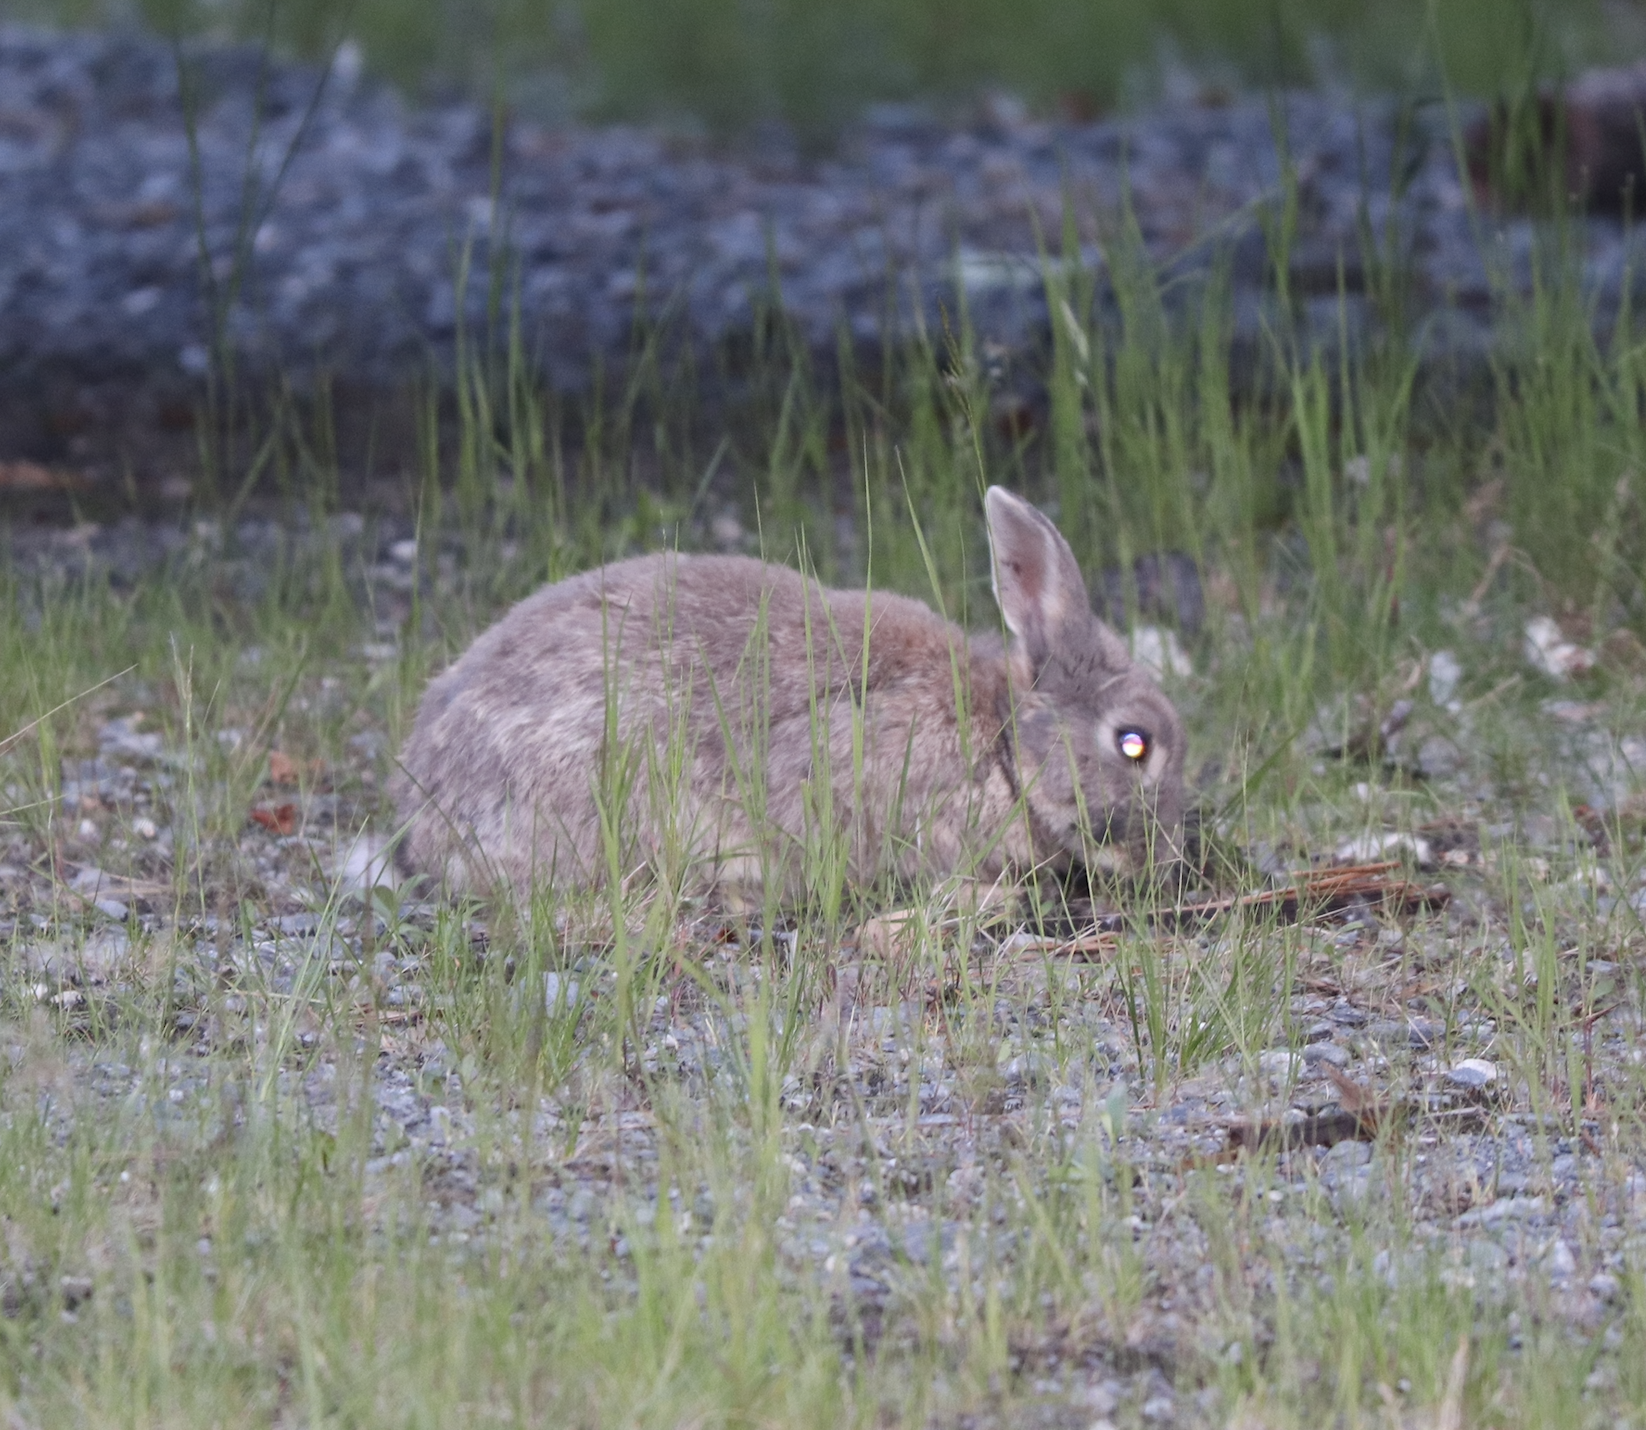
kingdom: Animalia
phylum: Chordata
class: Mammalia
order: Lagomorpha
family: Leporidae
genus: Oryctolagus
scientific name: Oryctolagus cuniculus
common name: European rabbit
